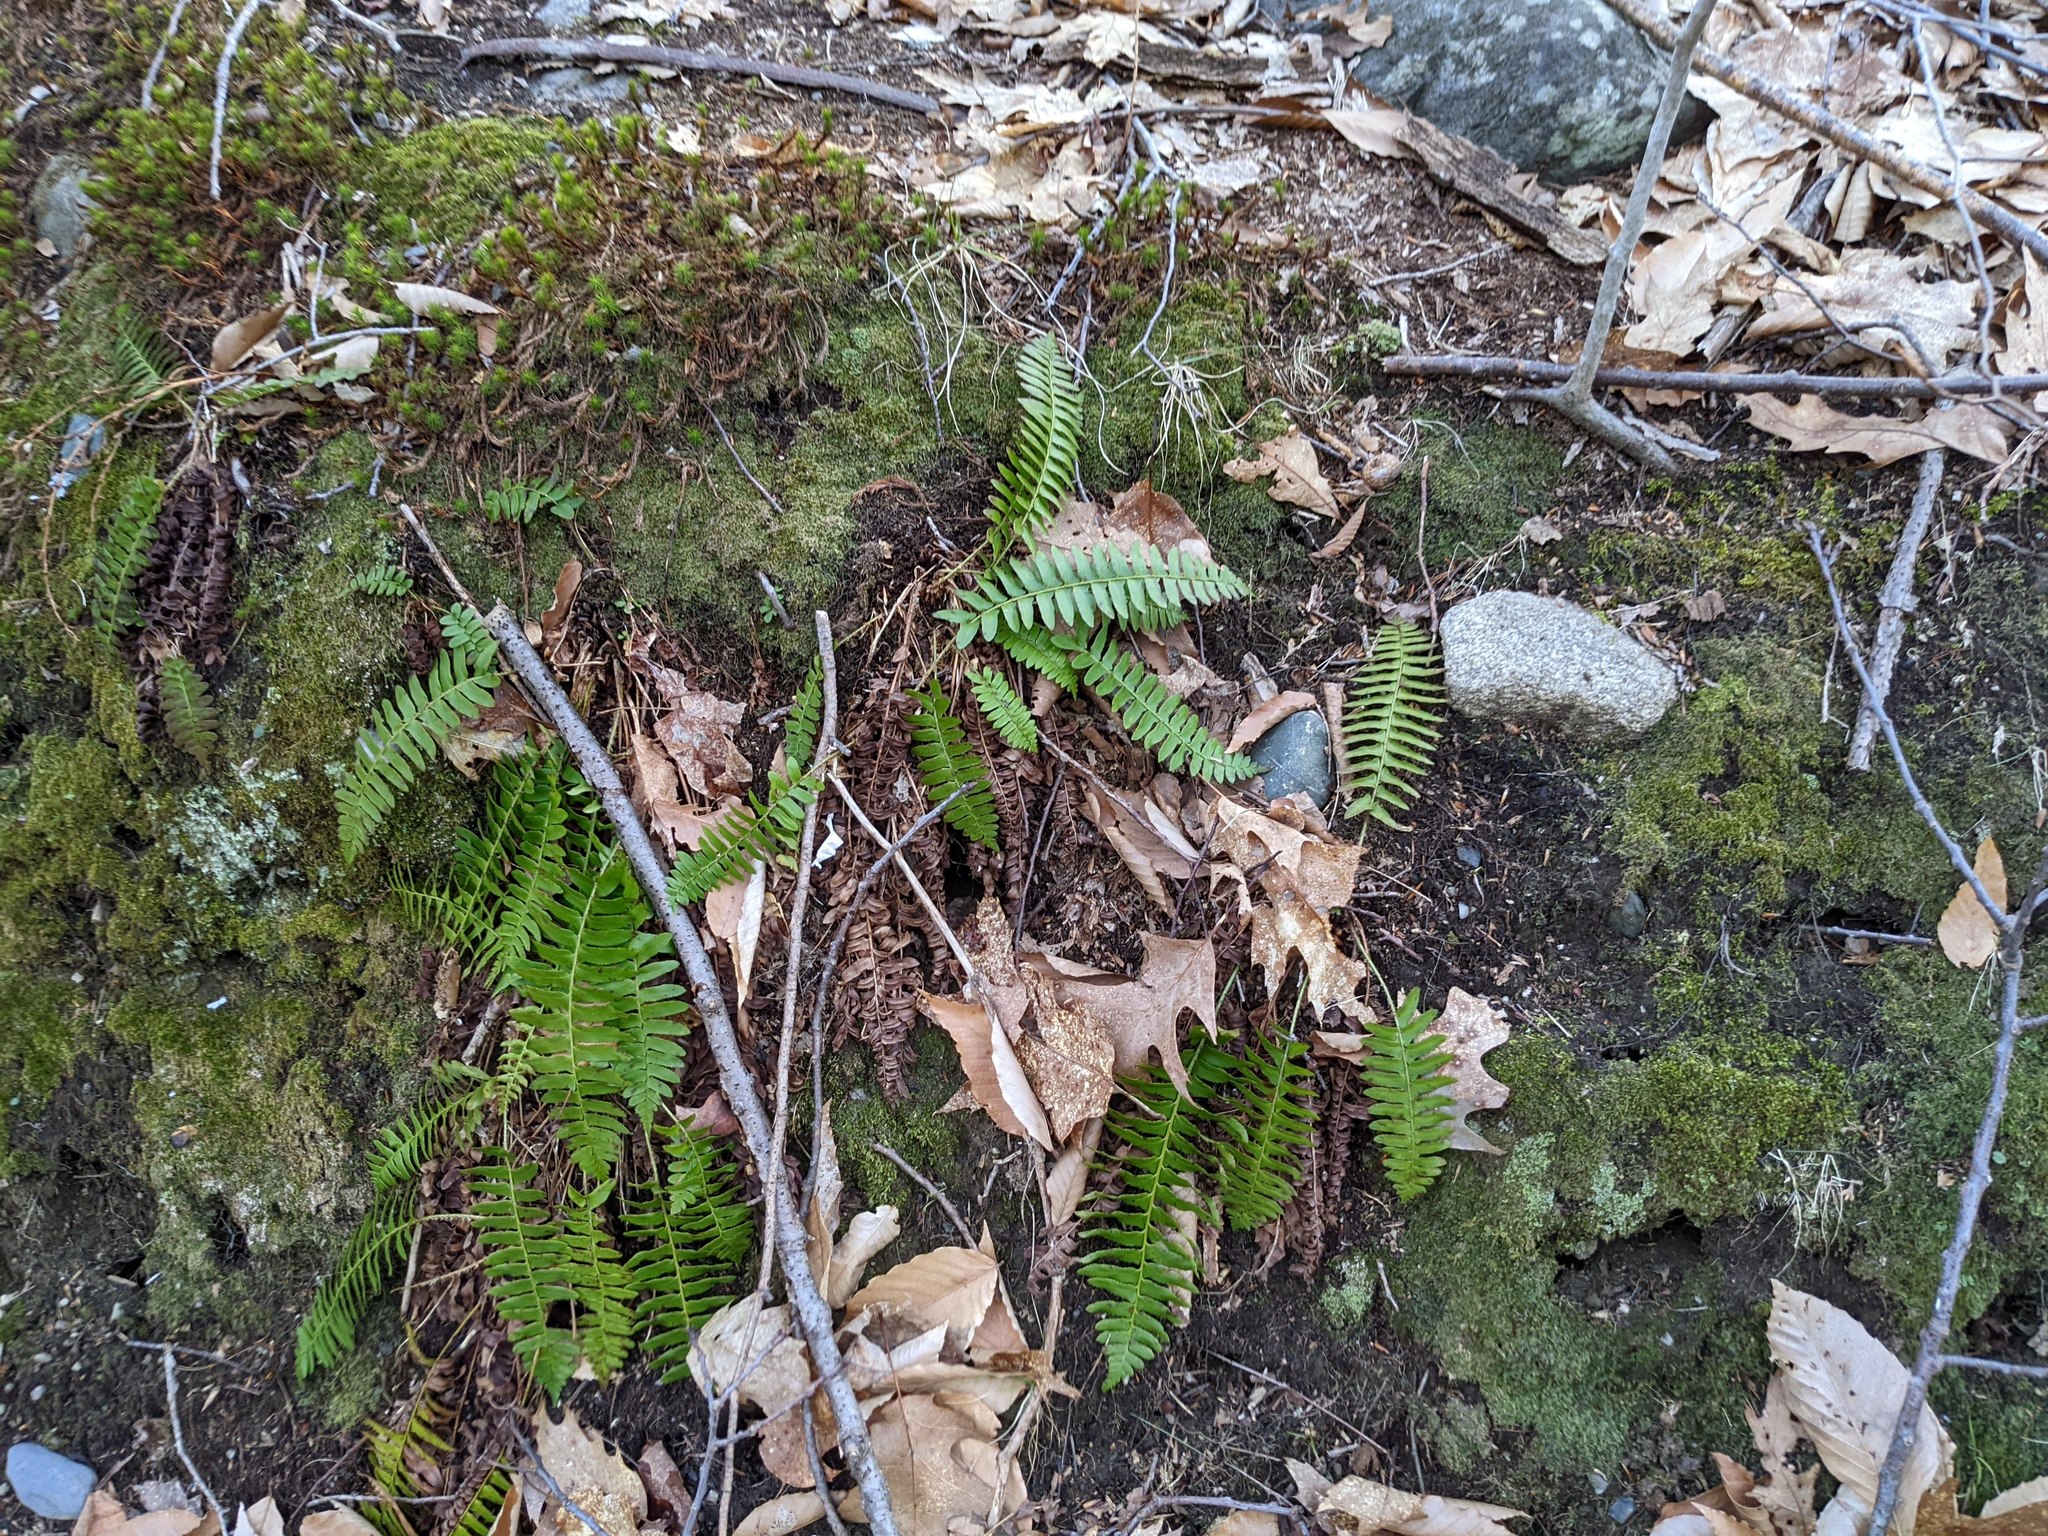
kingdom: Plantae
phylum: Tracheophyta
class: Polypodiopsida
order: Polypodiales
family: Dryopteridaceae
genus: Polystichum
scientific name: Polystichum acrostichoides
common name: Christmas fern
